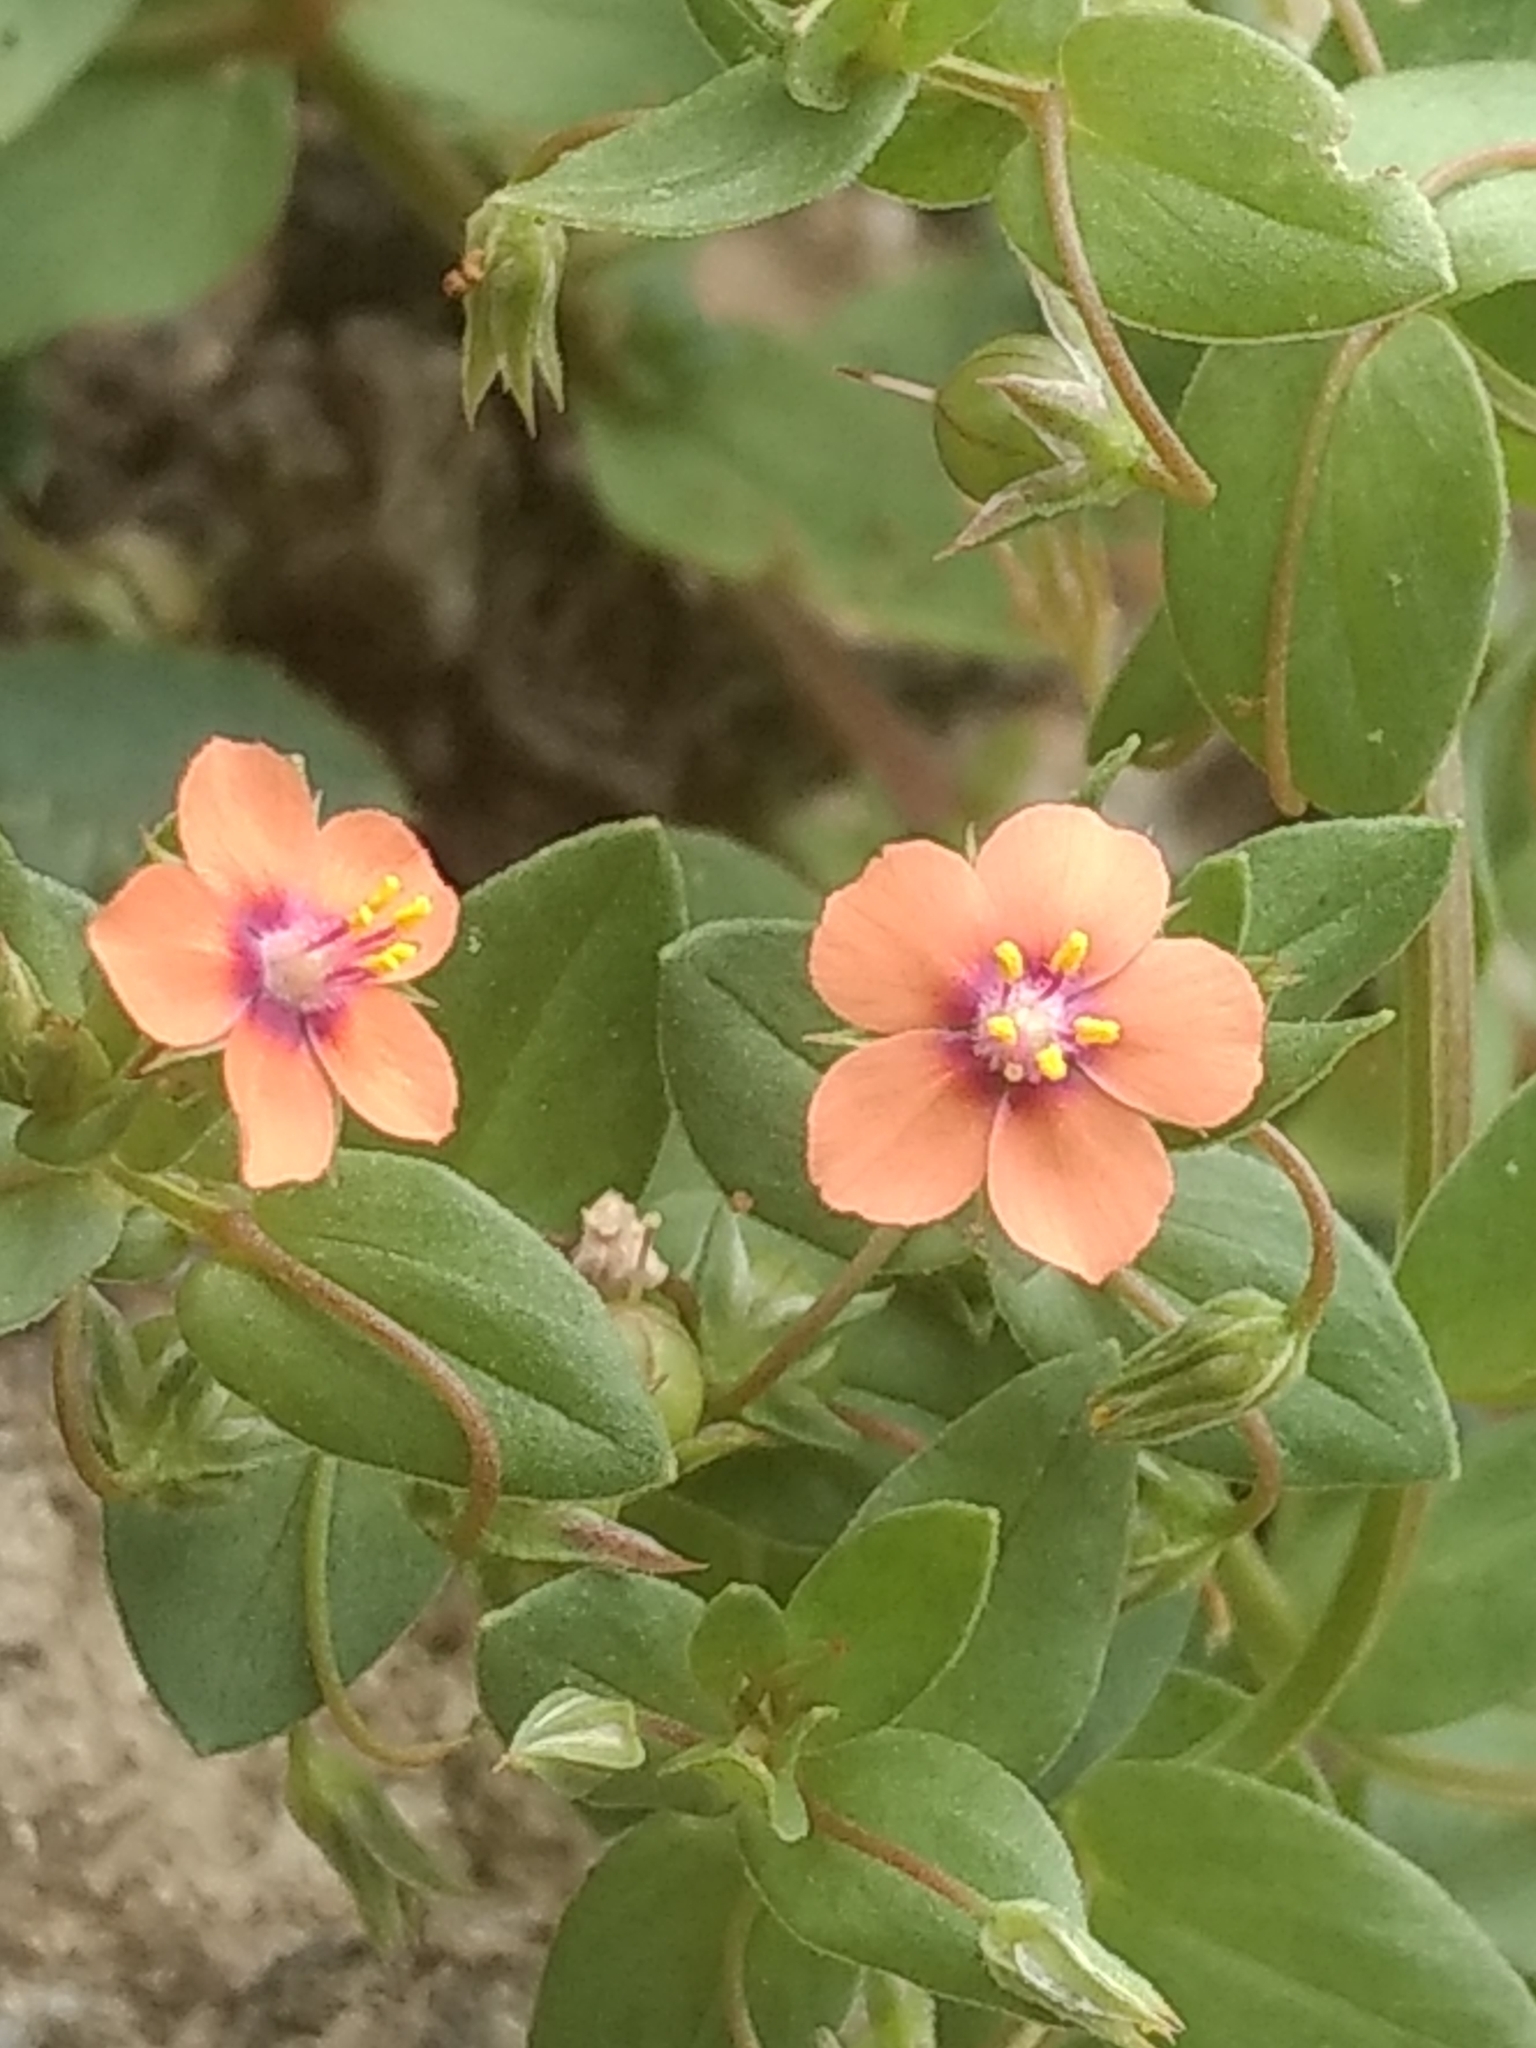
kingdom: Plantae
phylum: Tracheophyta
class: Magnoliopsida
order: Ericales
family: Primulaceae
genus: Lysimachia
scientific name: Lysimachia arvensis
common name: Scarlet pimpernel
